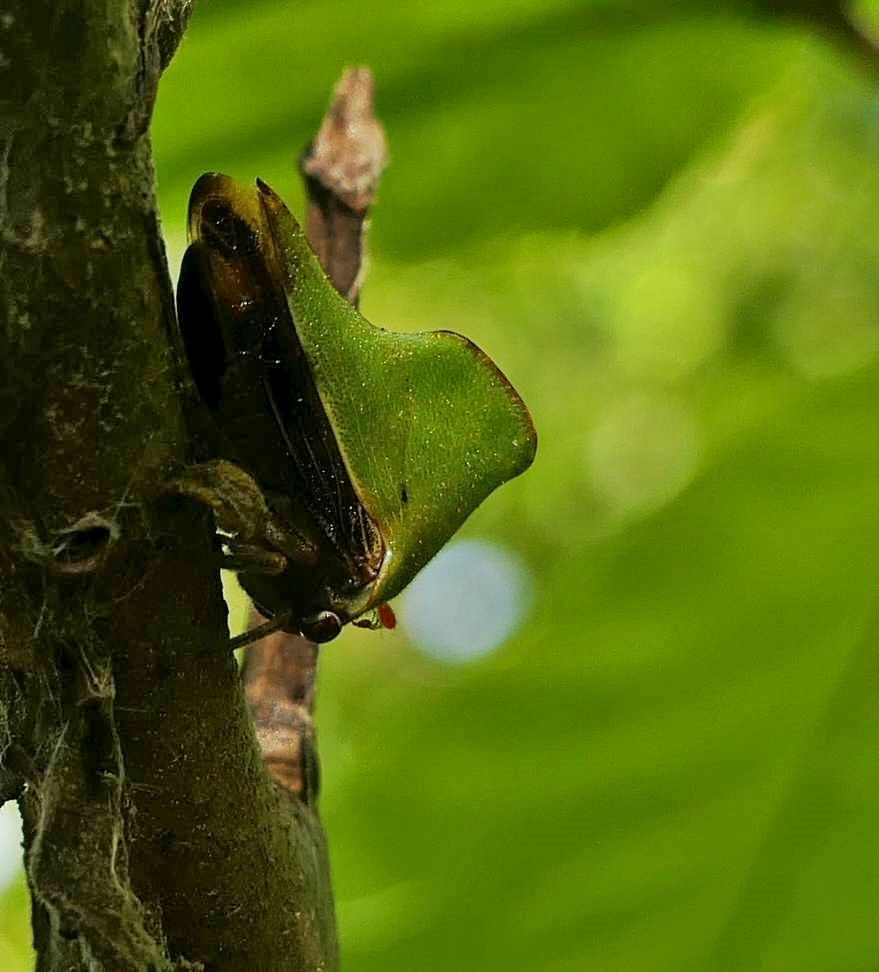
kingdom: Animalia
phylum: Arthropoda
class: Insecta
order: Hemiptera
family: Membracidae
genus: Helonica
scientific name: Helonica excelsa
